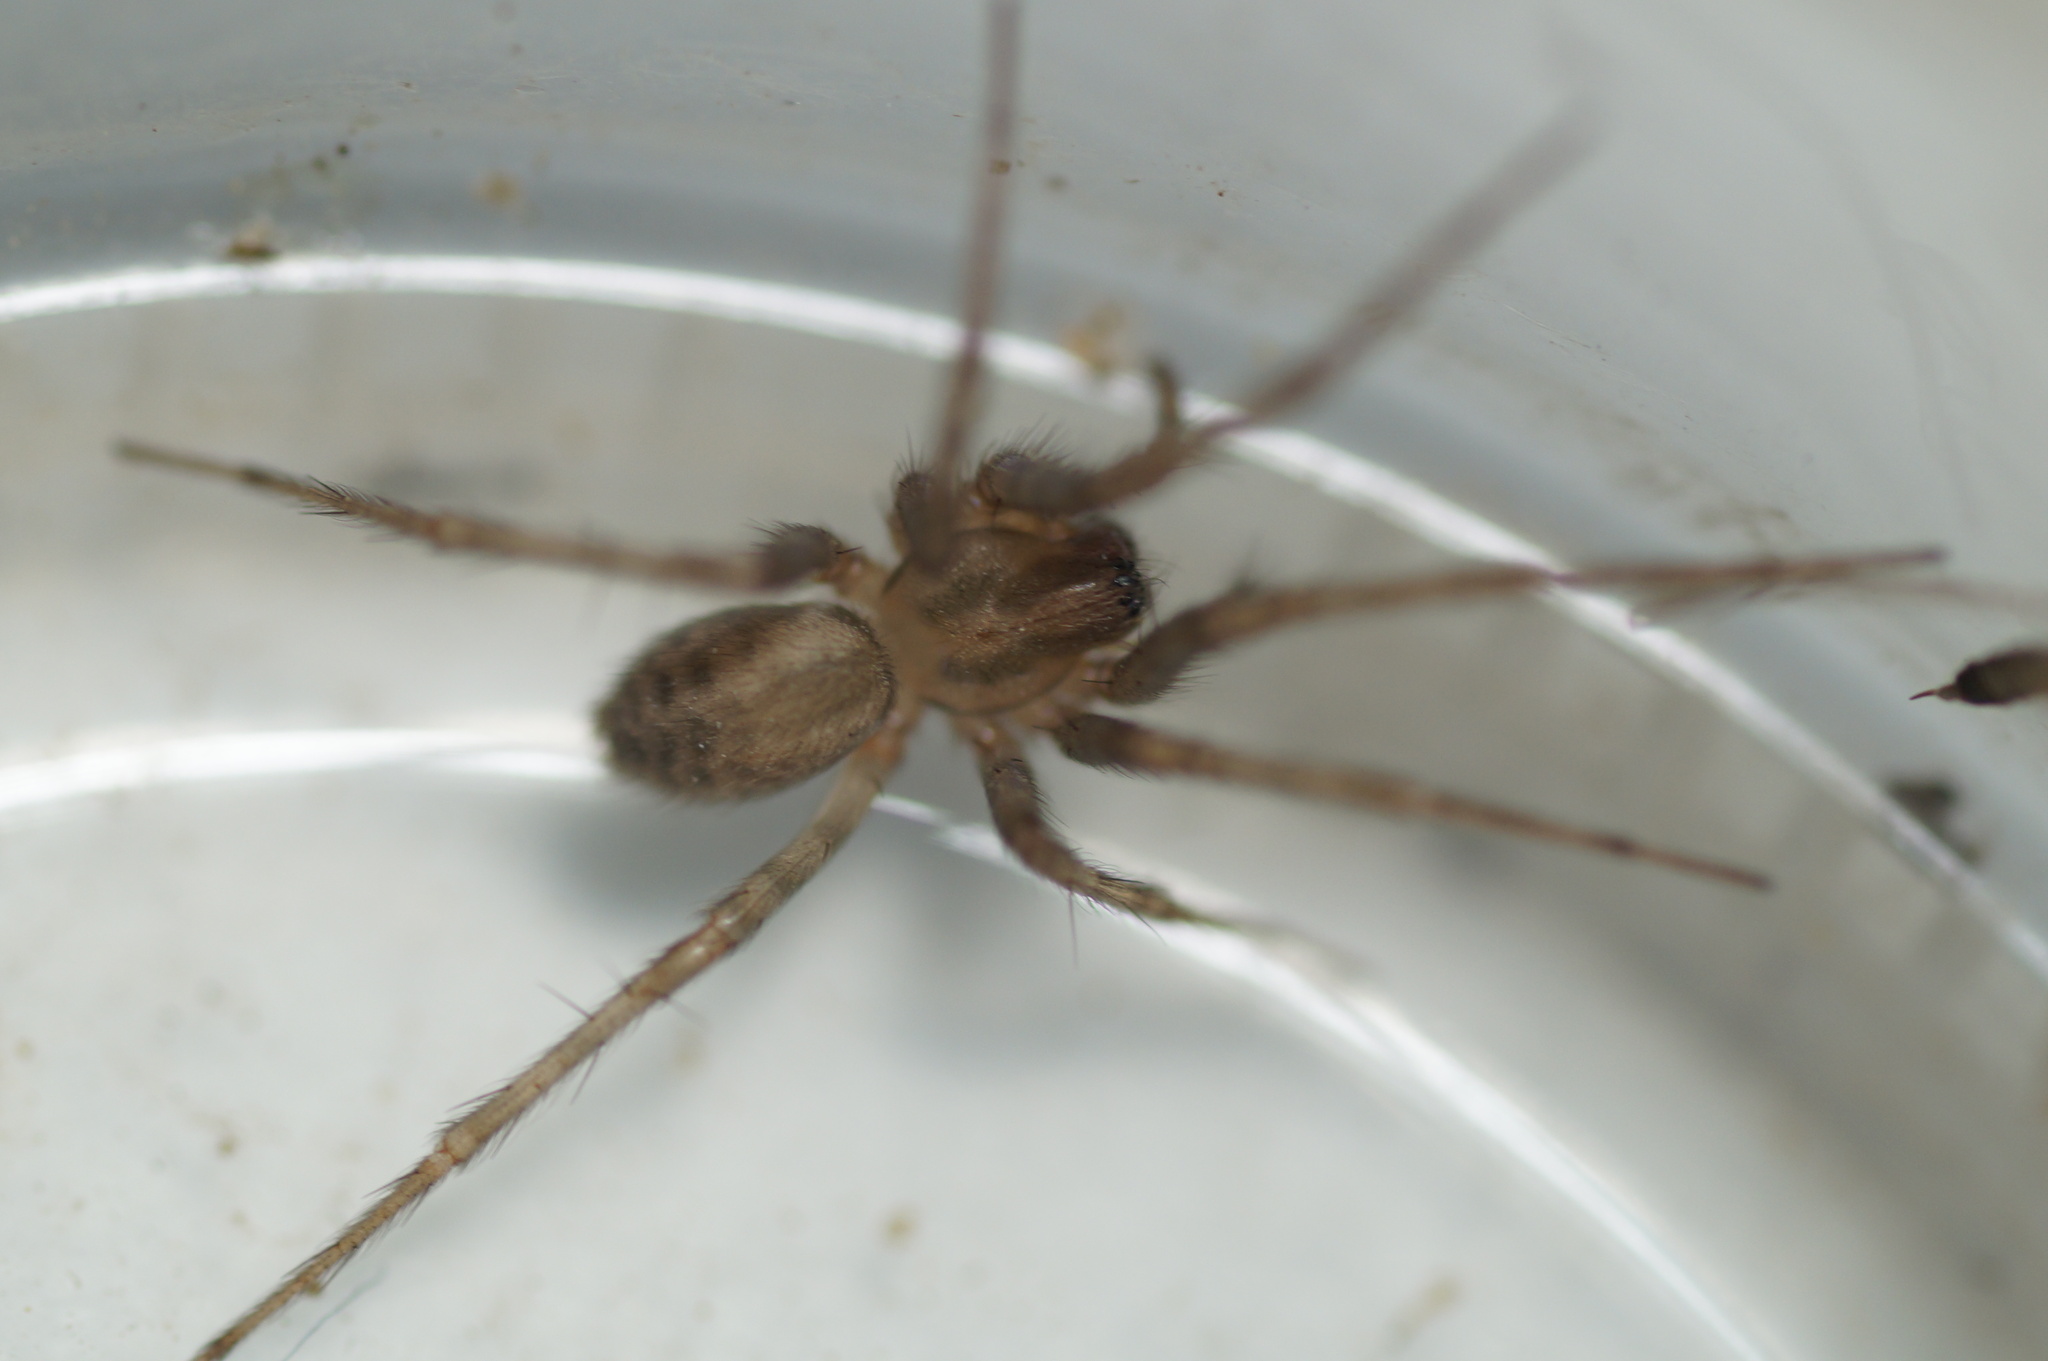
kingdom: Animalia
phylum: Arthropoda
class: Arachnida
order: Araneae
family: Agelenidae
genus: Tegenaria
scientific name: Tegenaria domestica
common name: Barn funnel weaver
